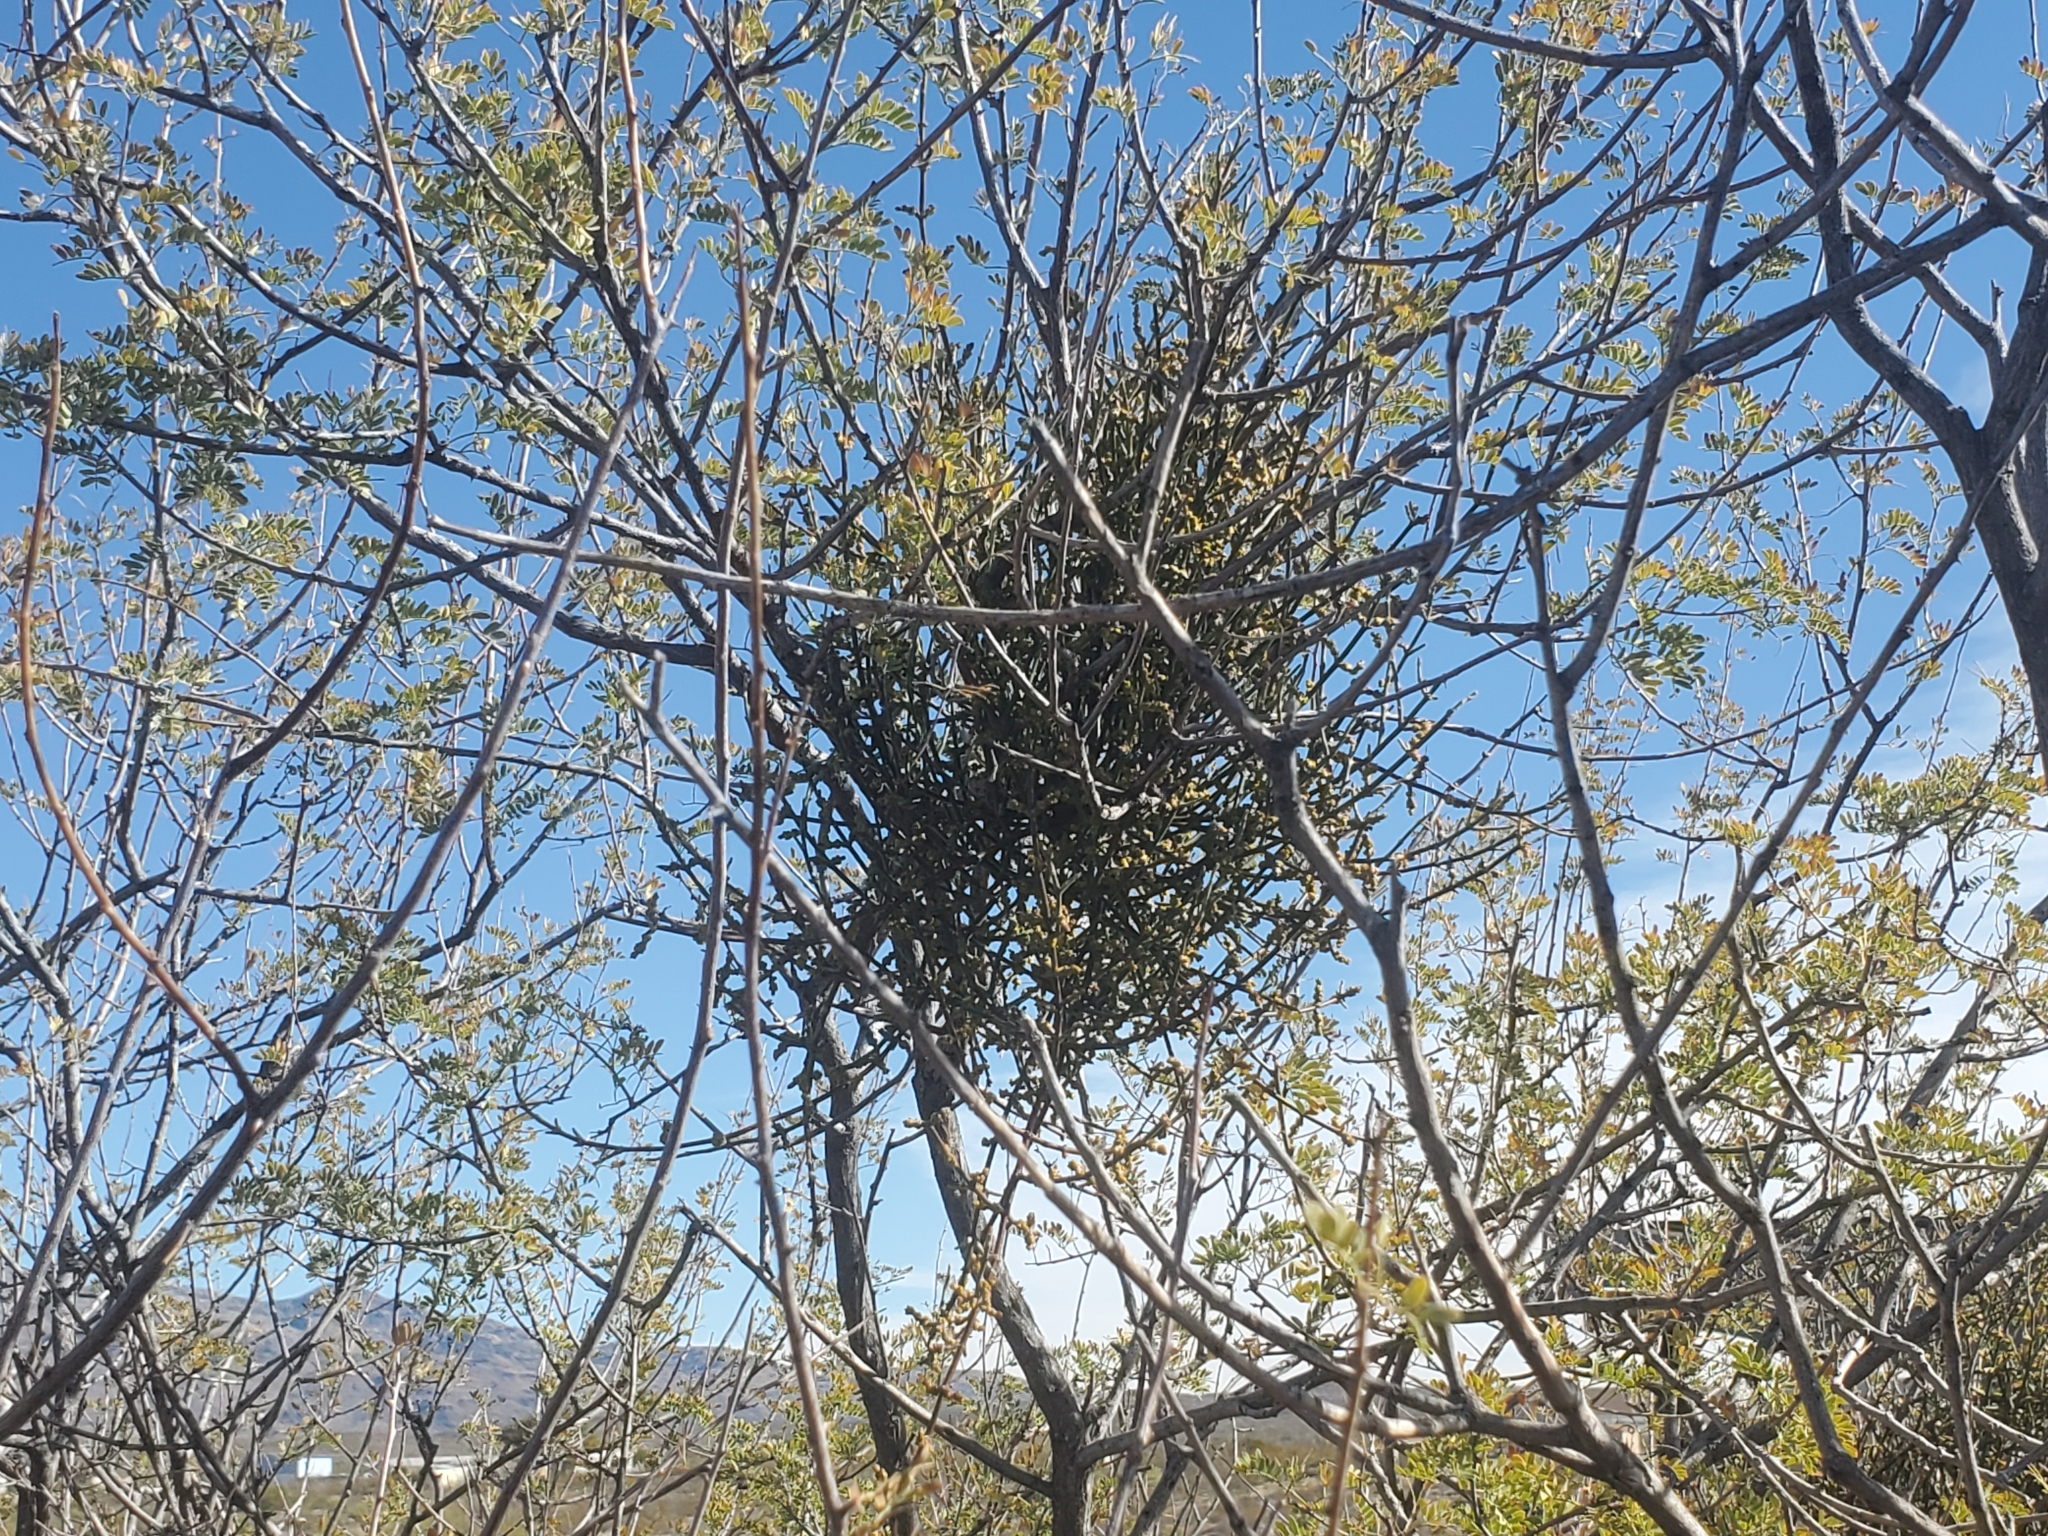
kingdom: Plantae
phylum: Tracheophyta
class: Magnoliopsida
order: Fabales
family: Fabaceae
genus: Senegalia
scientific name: Senegalia greggii
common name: Texas-mimosa
